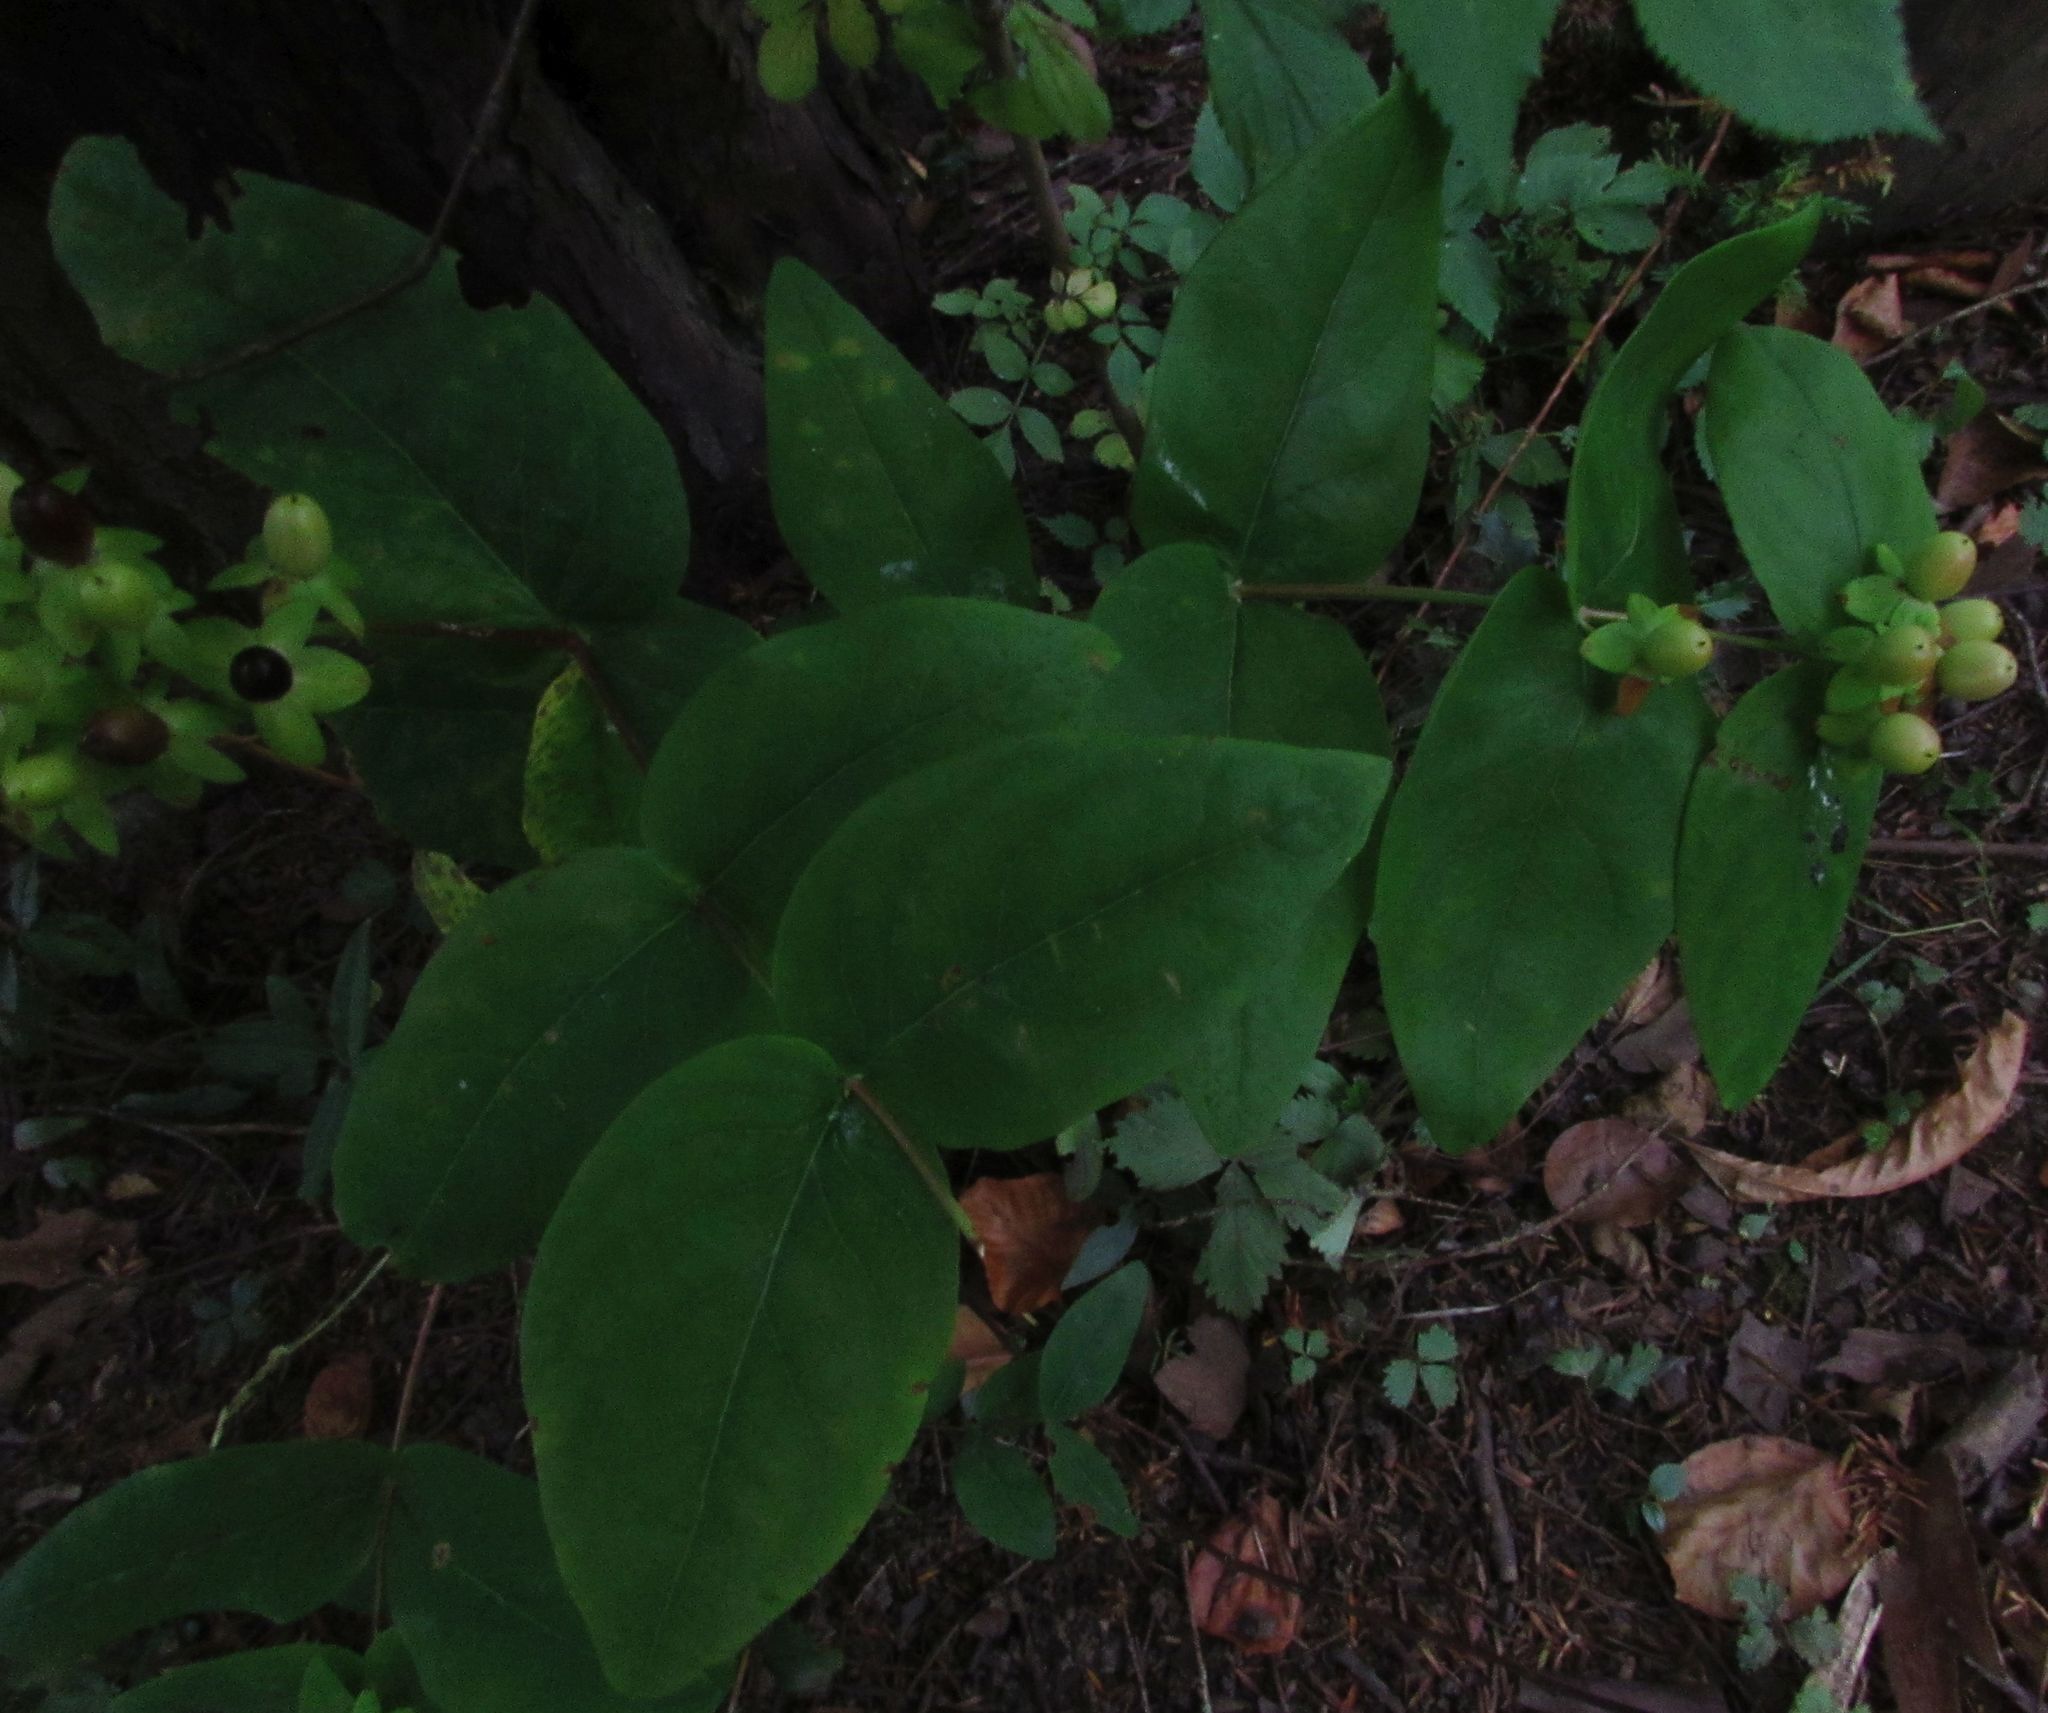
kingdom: Plantae
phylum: Tracheophyta
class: Magnoliopsida
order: Malpighiales
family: Hypericaceae
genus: Hypericum
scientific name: Hypericum androsaemum
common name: Sweet-amber
